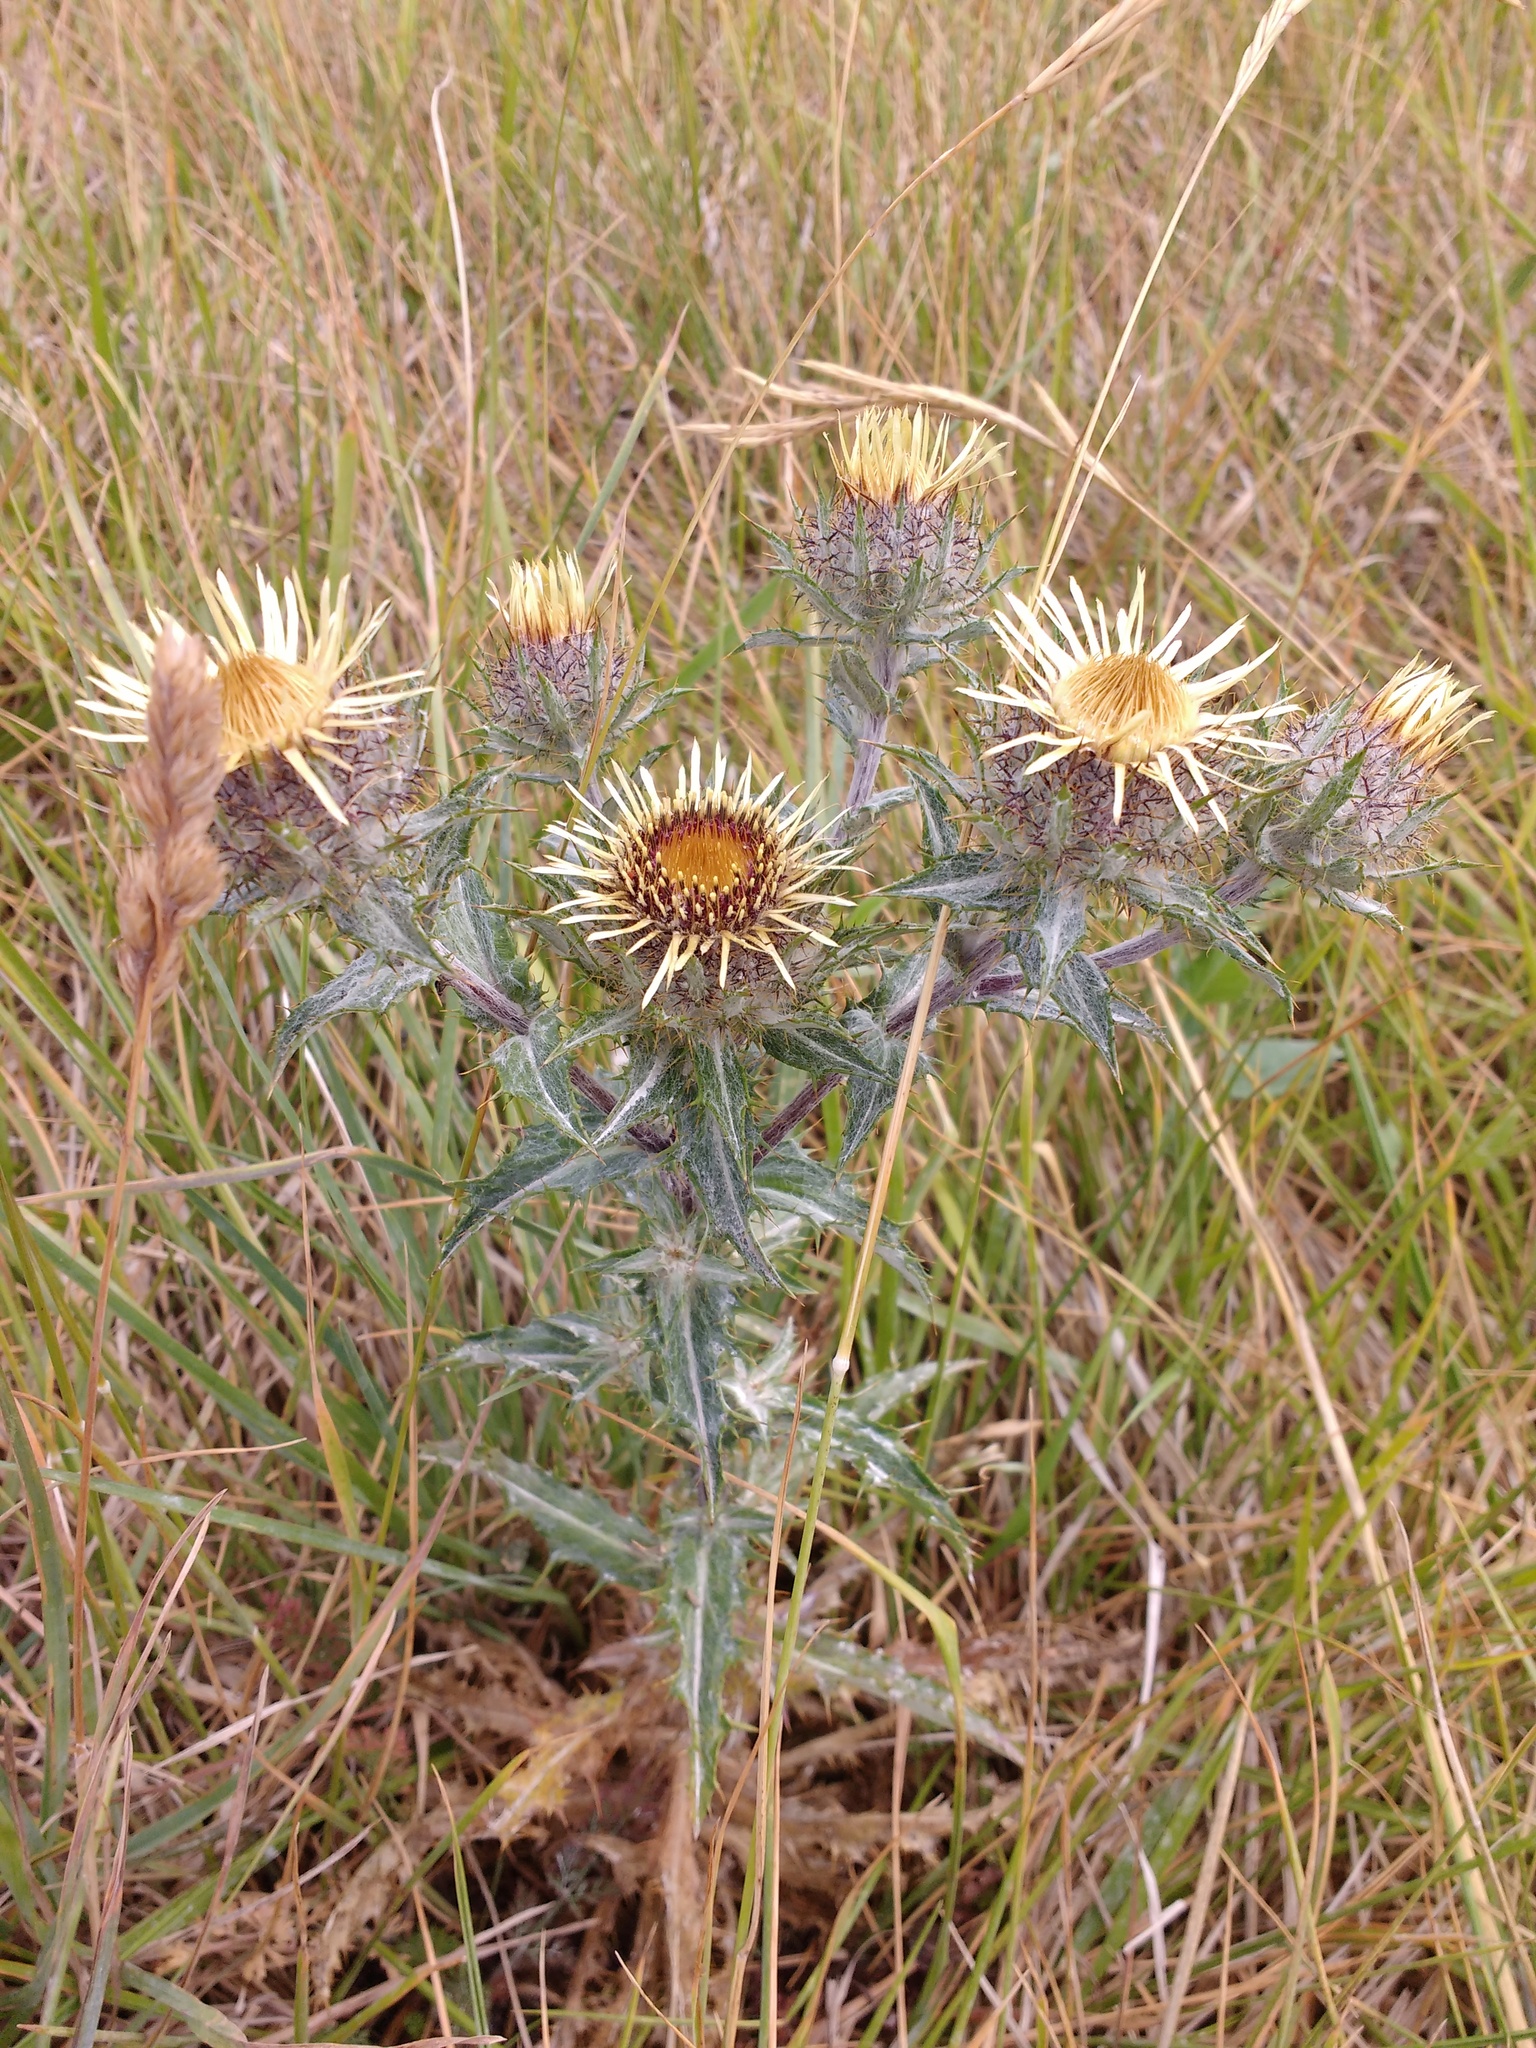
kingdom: Plantae
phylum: Tracheophyta
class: Magnoliopsida
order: Asterales
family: Asteraceae
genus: Carlina
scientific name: Carlina vulgaris
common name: Carline thistle
